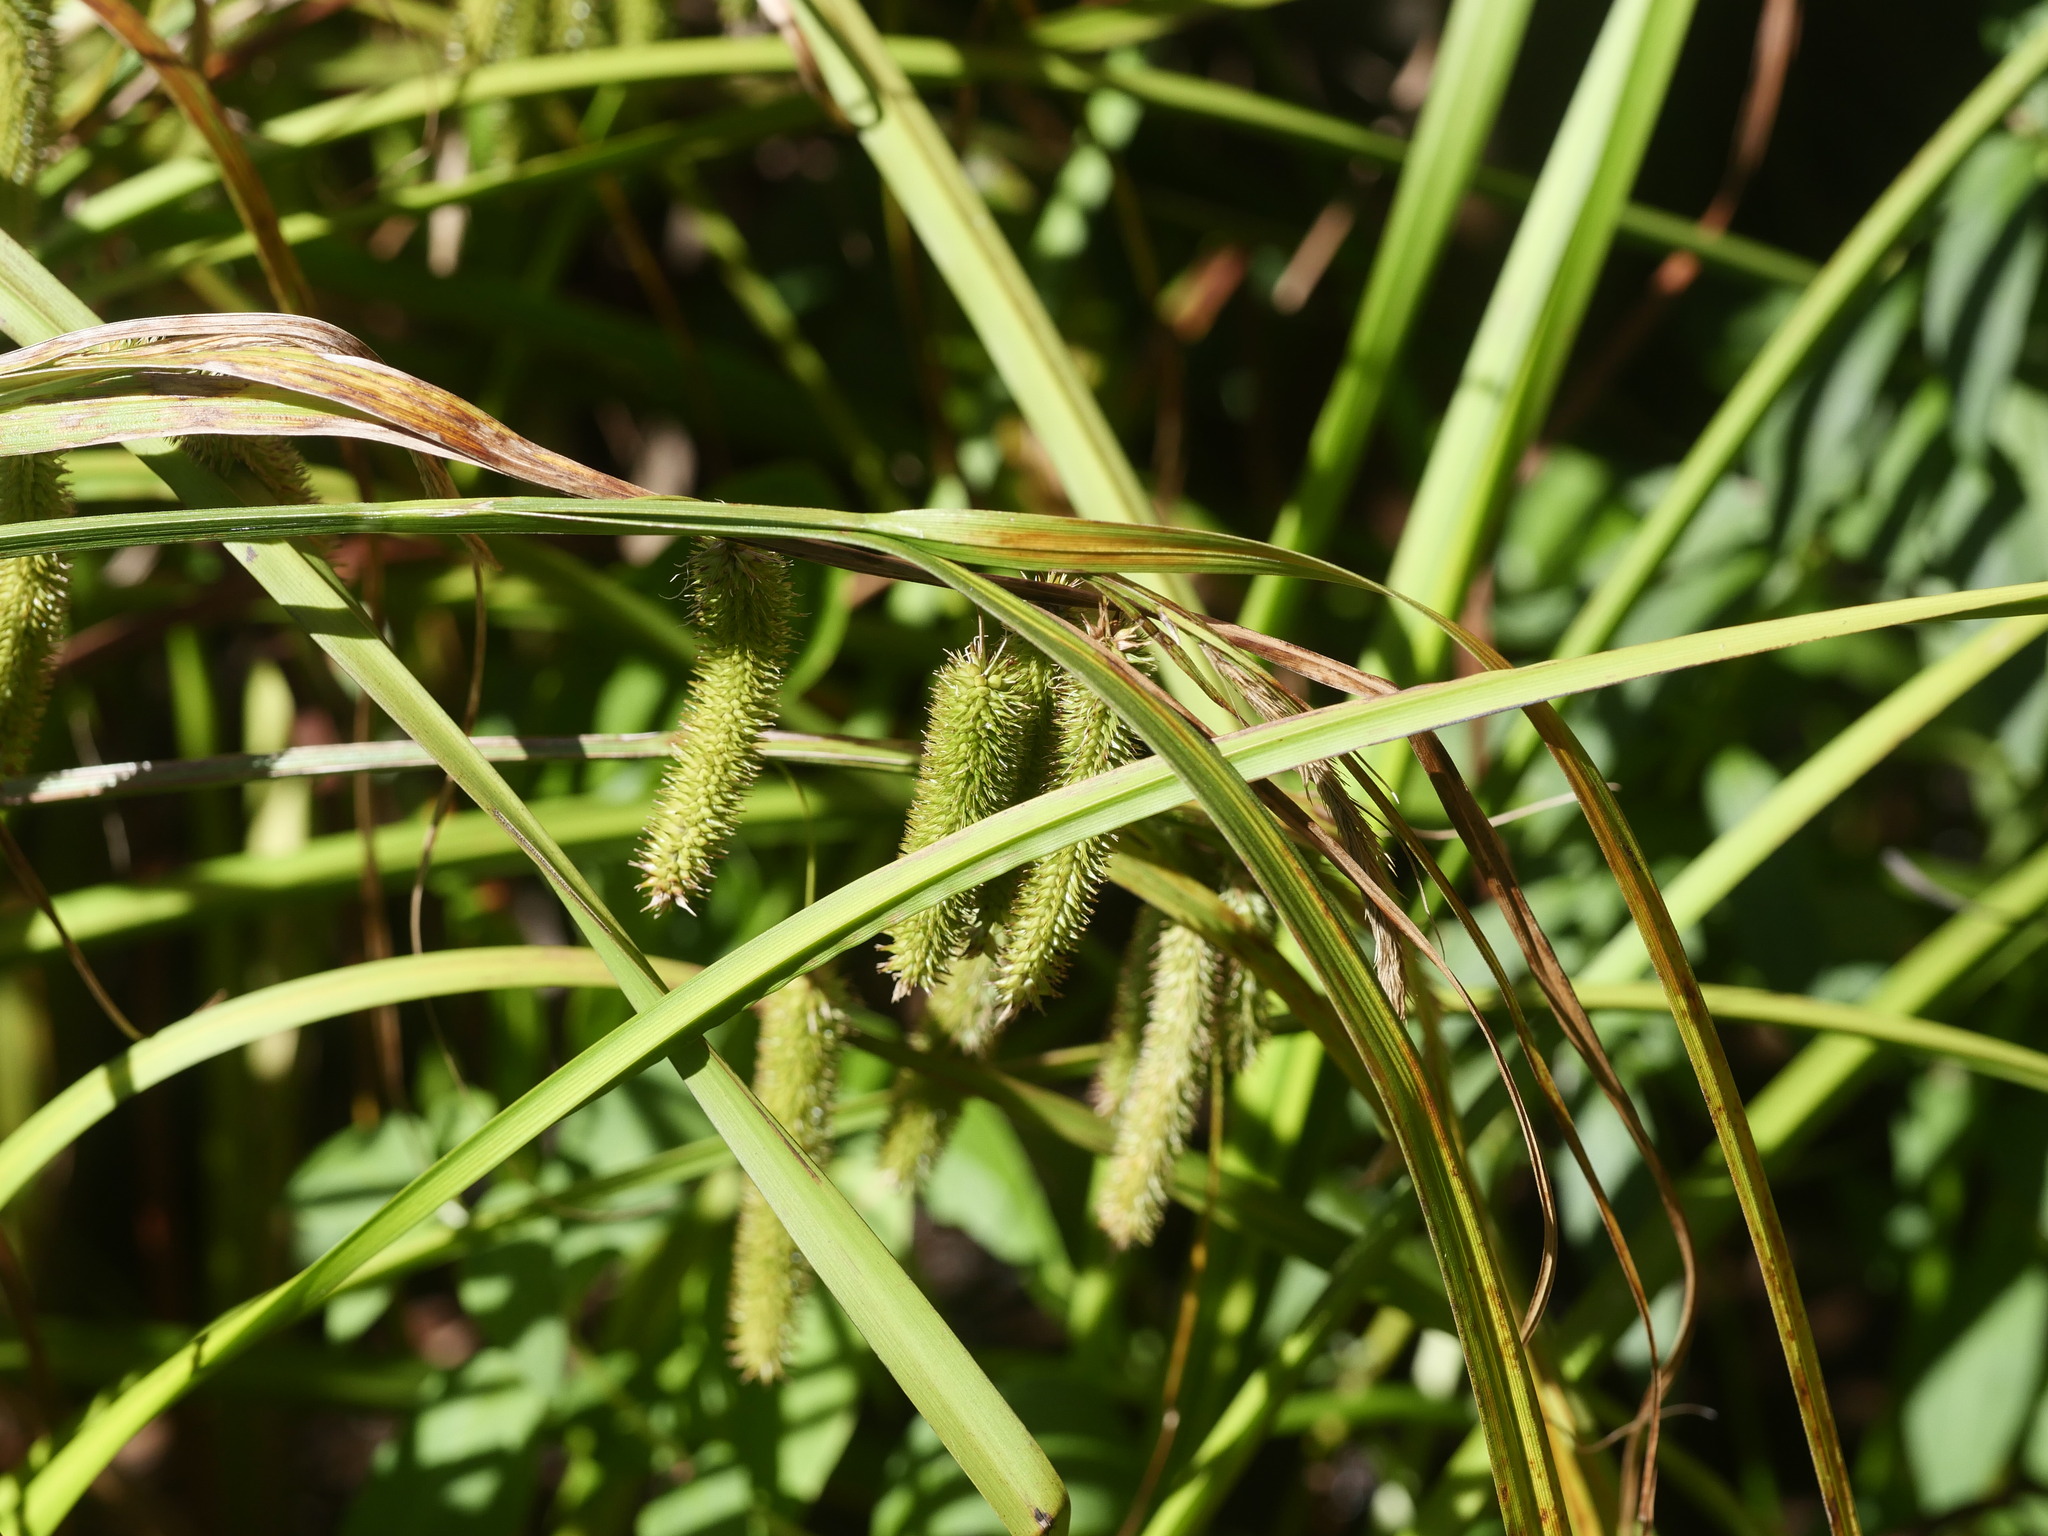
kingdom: Plantae
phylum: Tracheophyta
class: Liliopsida
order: Poales
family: Cyperaceae
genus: Carex
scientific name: Carex pseudocyperus
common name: Cyperus sedge
